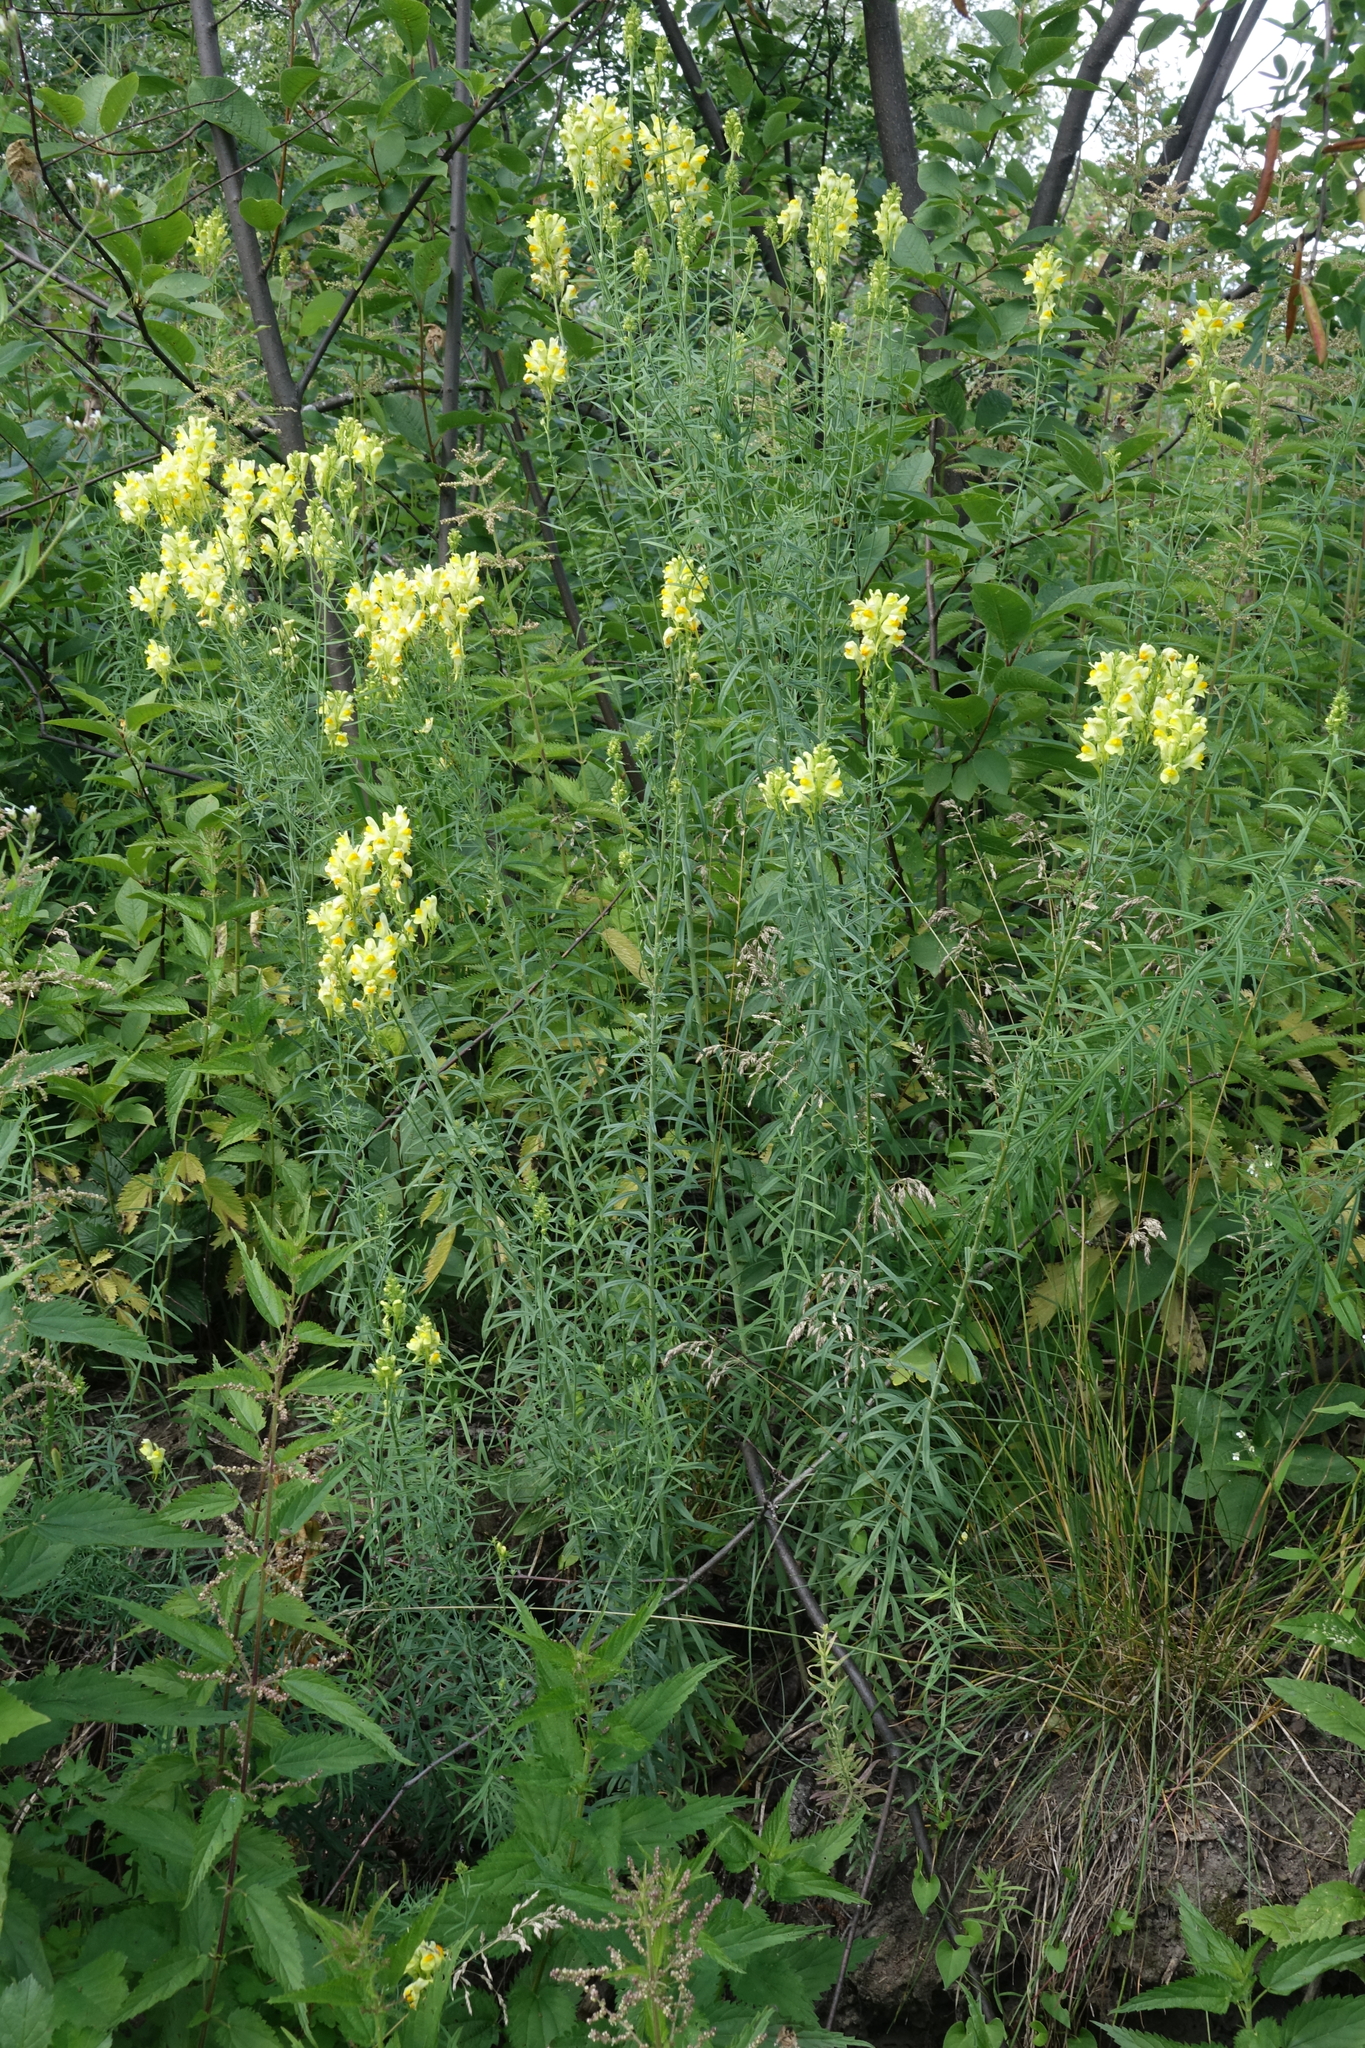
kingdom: Plantae
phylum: Tracheophyta
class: Magnoliopsida
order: Lamiales
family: Plantaginaceae
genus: Linaria
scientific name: Linaria vulgaris
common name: Butter and eggs
